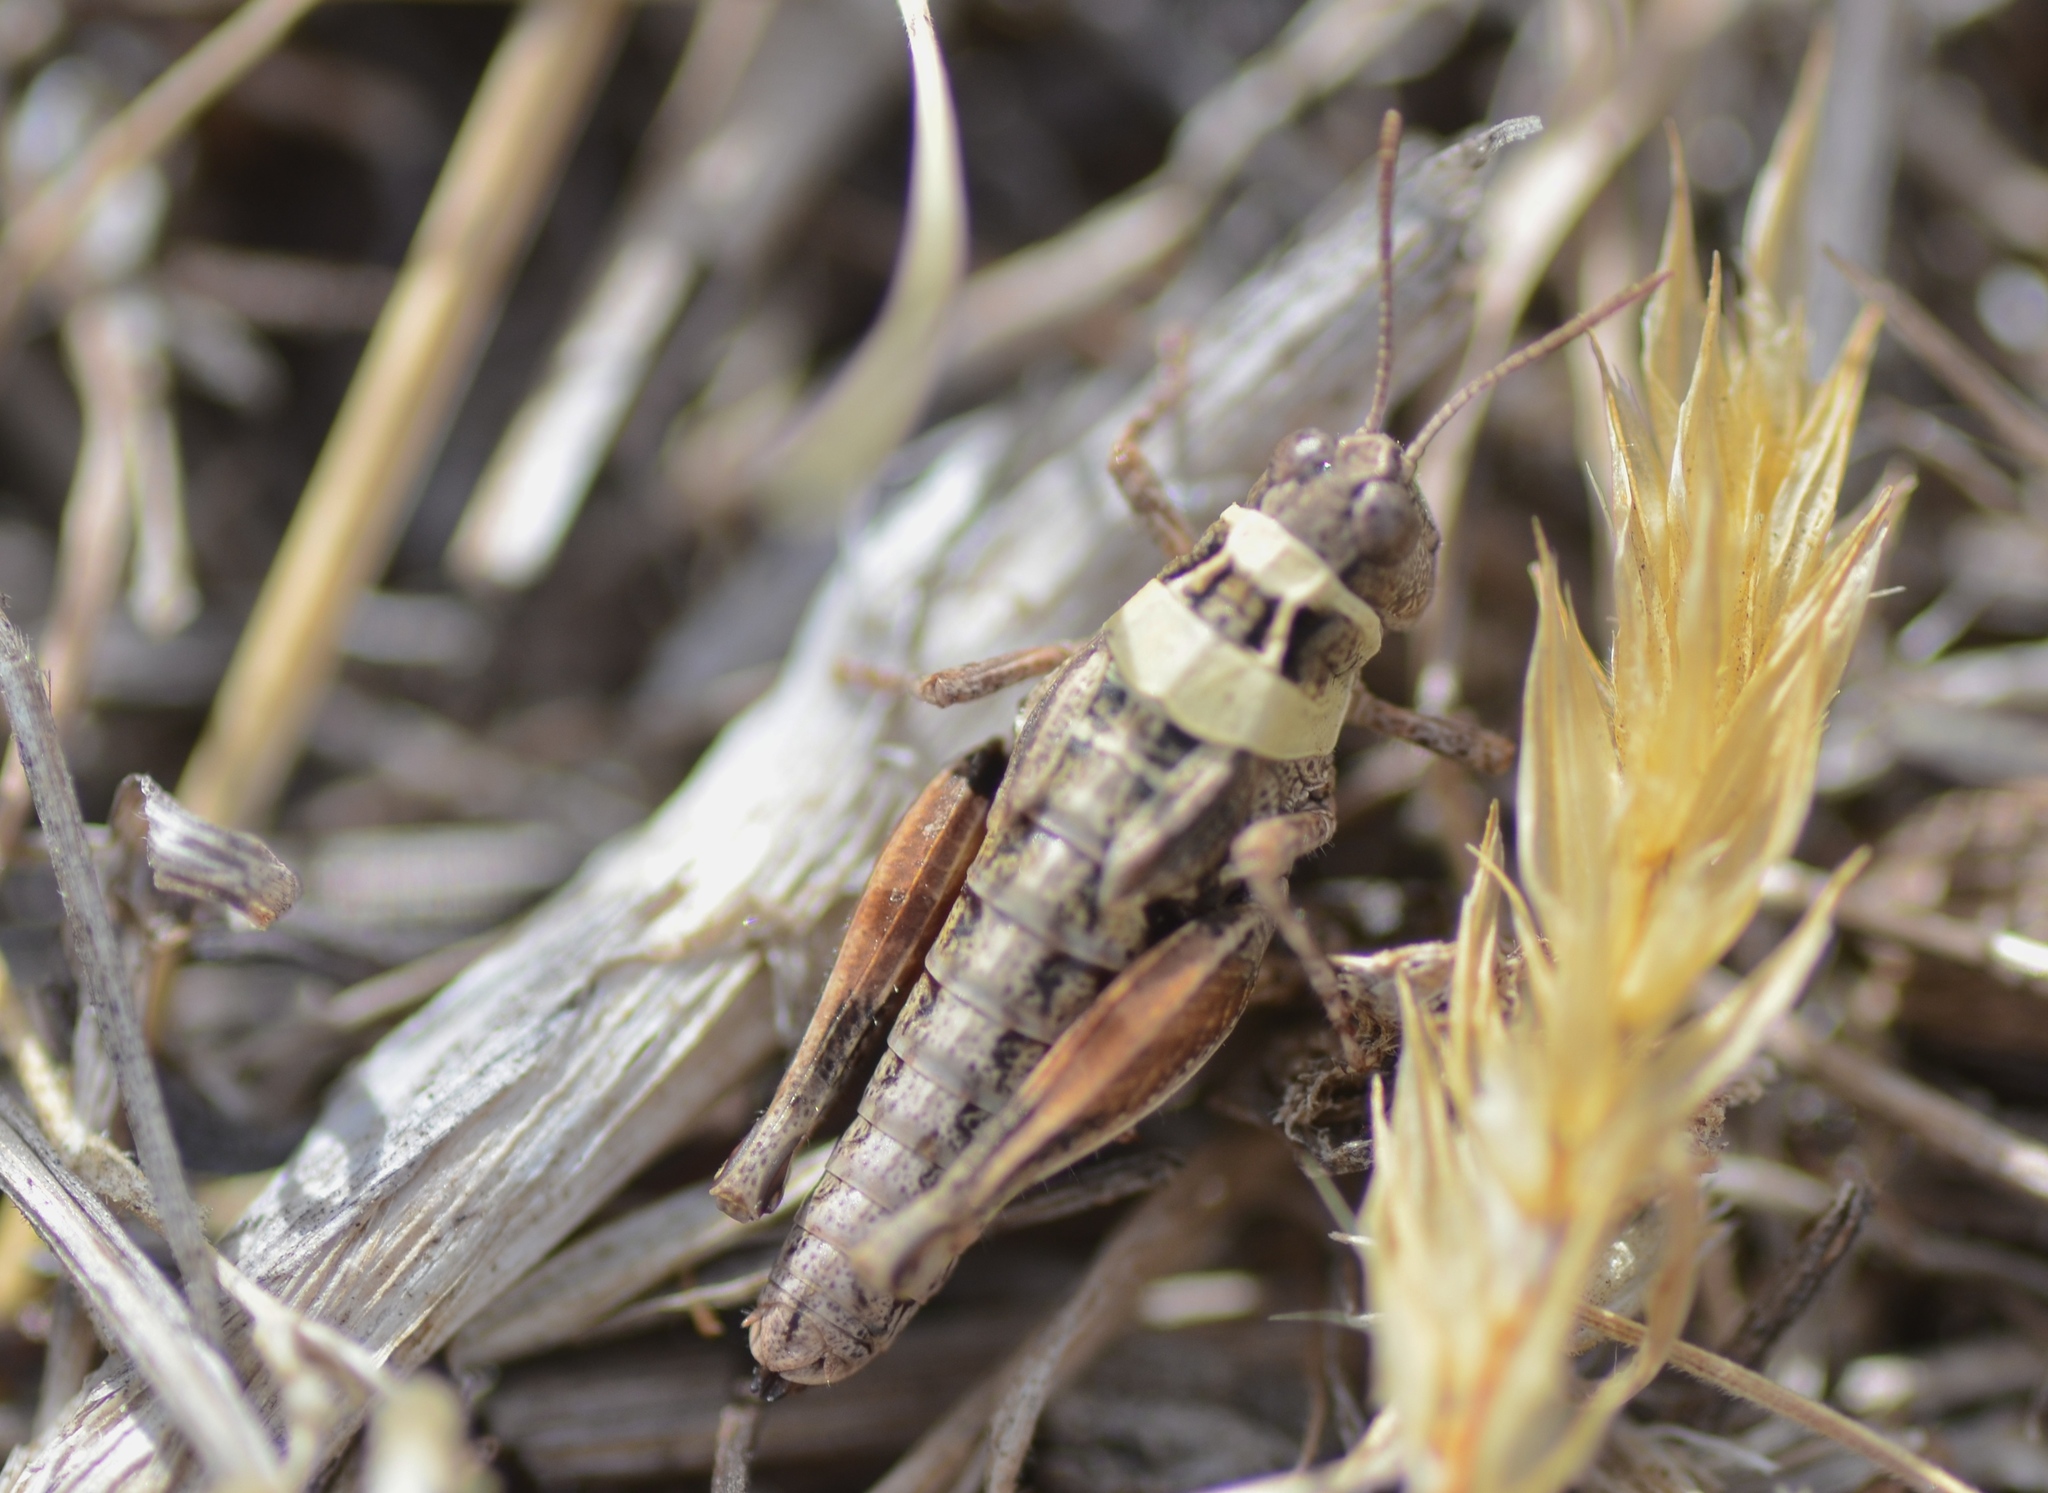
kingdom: Animalia
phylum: Arthropoda
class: Insecta
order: Orthoptera
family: Acrididae
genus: Phaulacridium
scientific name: Phaulacridium marginale
